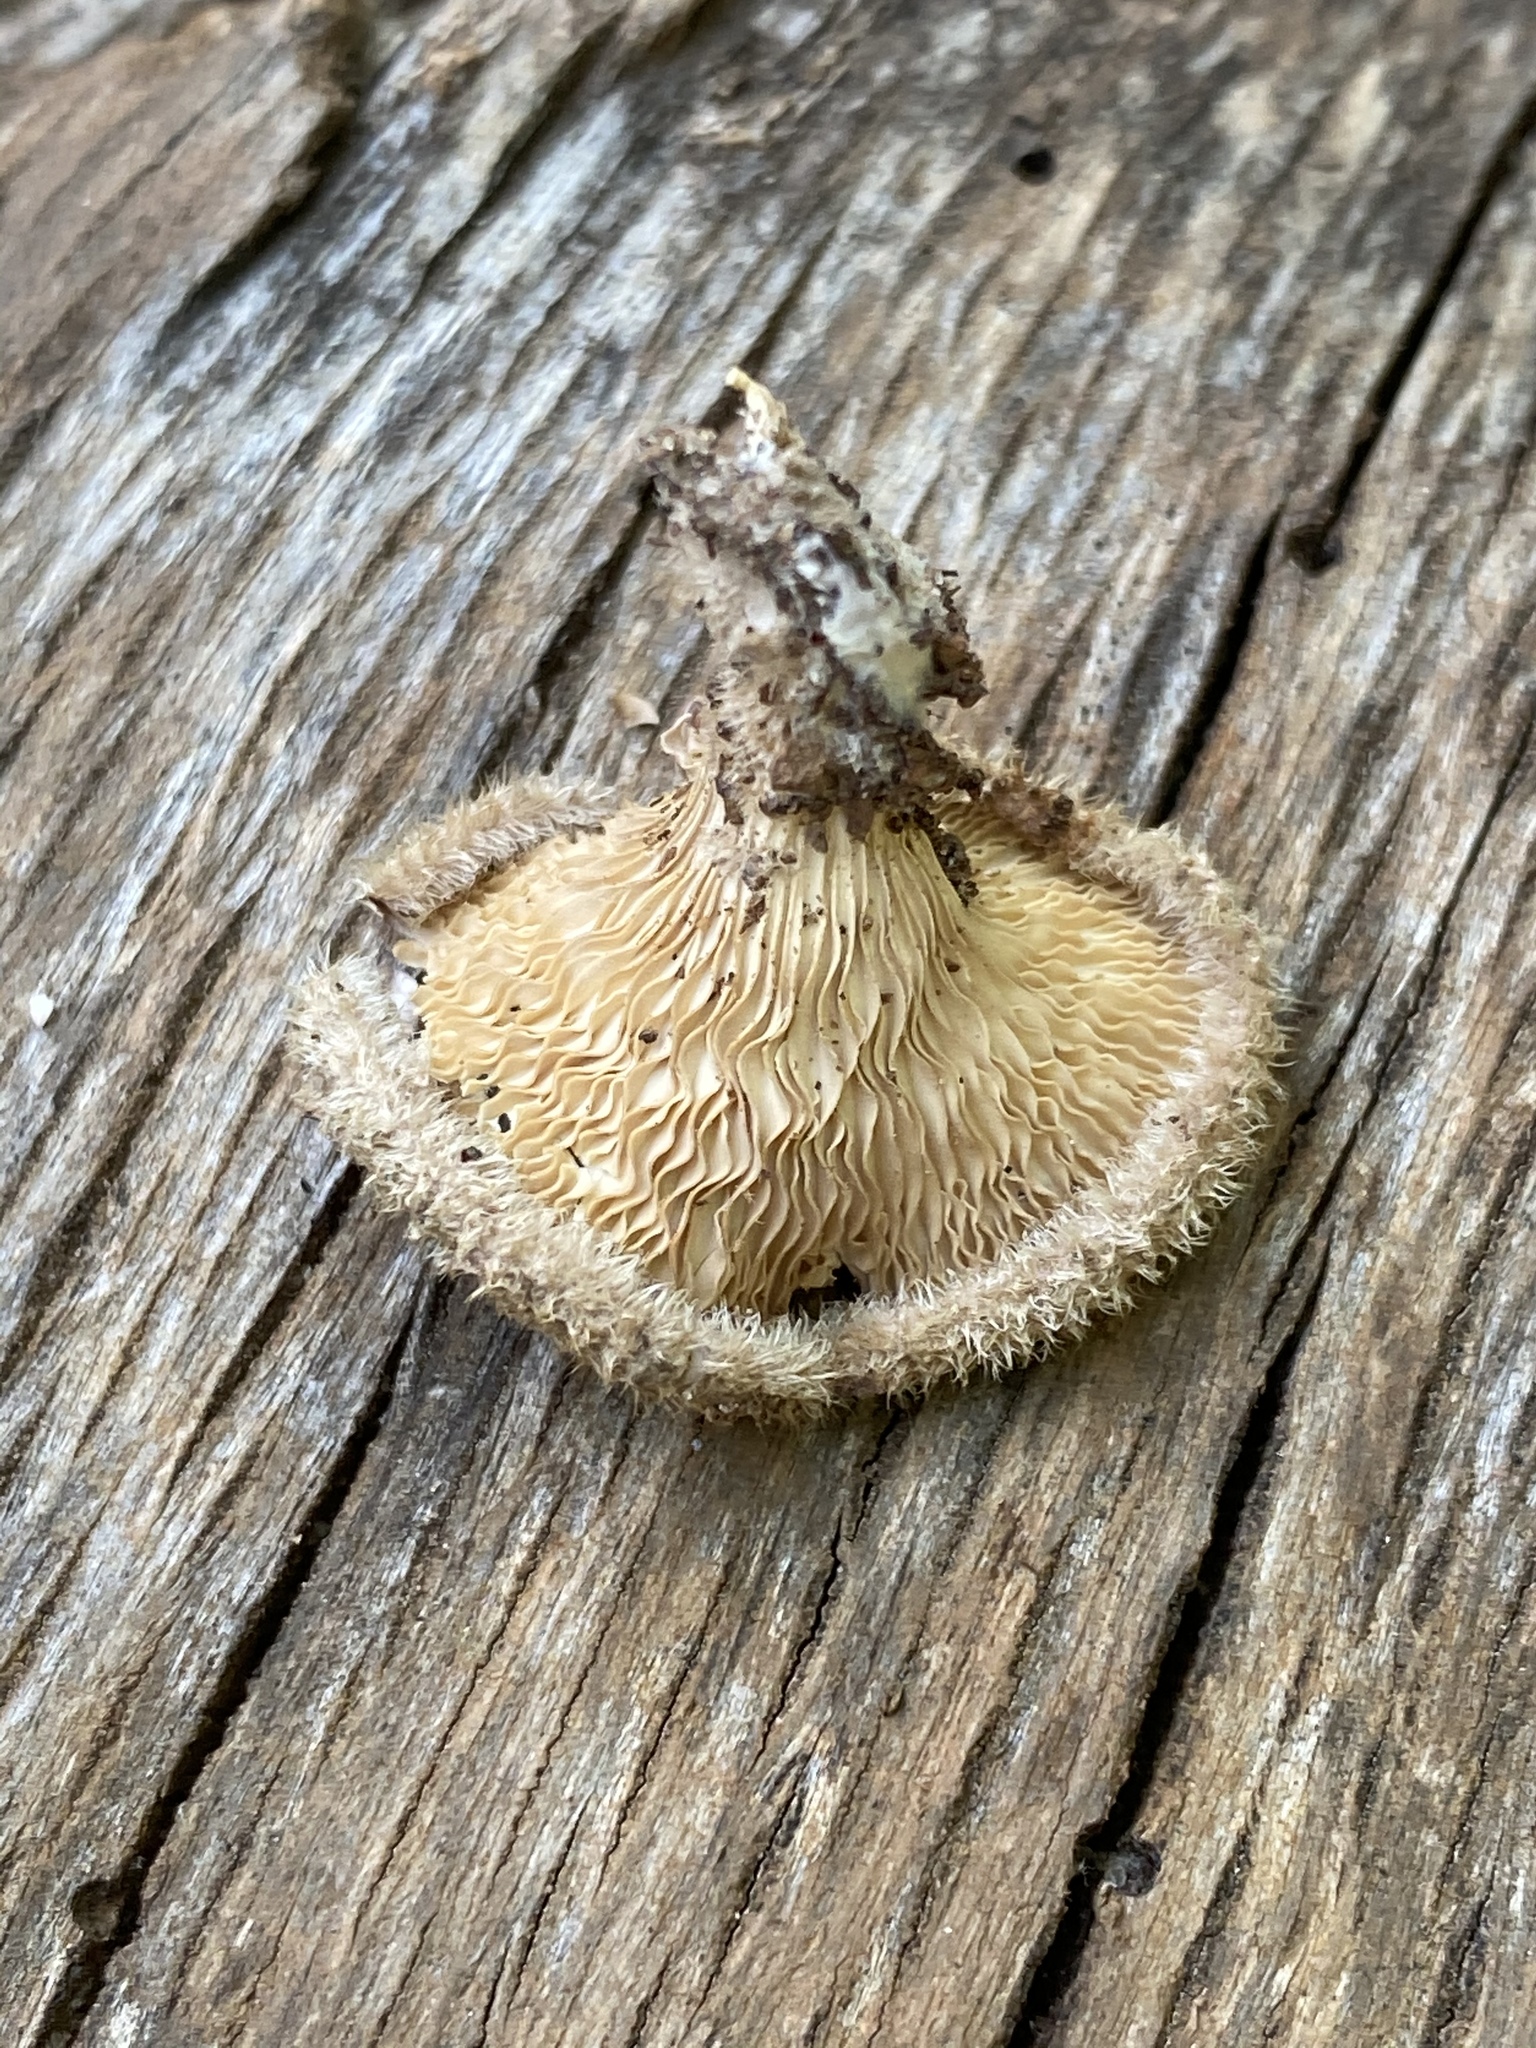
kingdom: Fungi
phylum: Basidiomycota
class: Agaricomycetes
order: Polyporales
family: Panaceae
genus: Panus
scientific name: Panus neostrigosus
